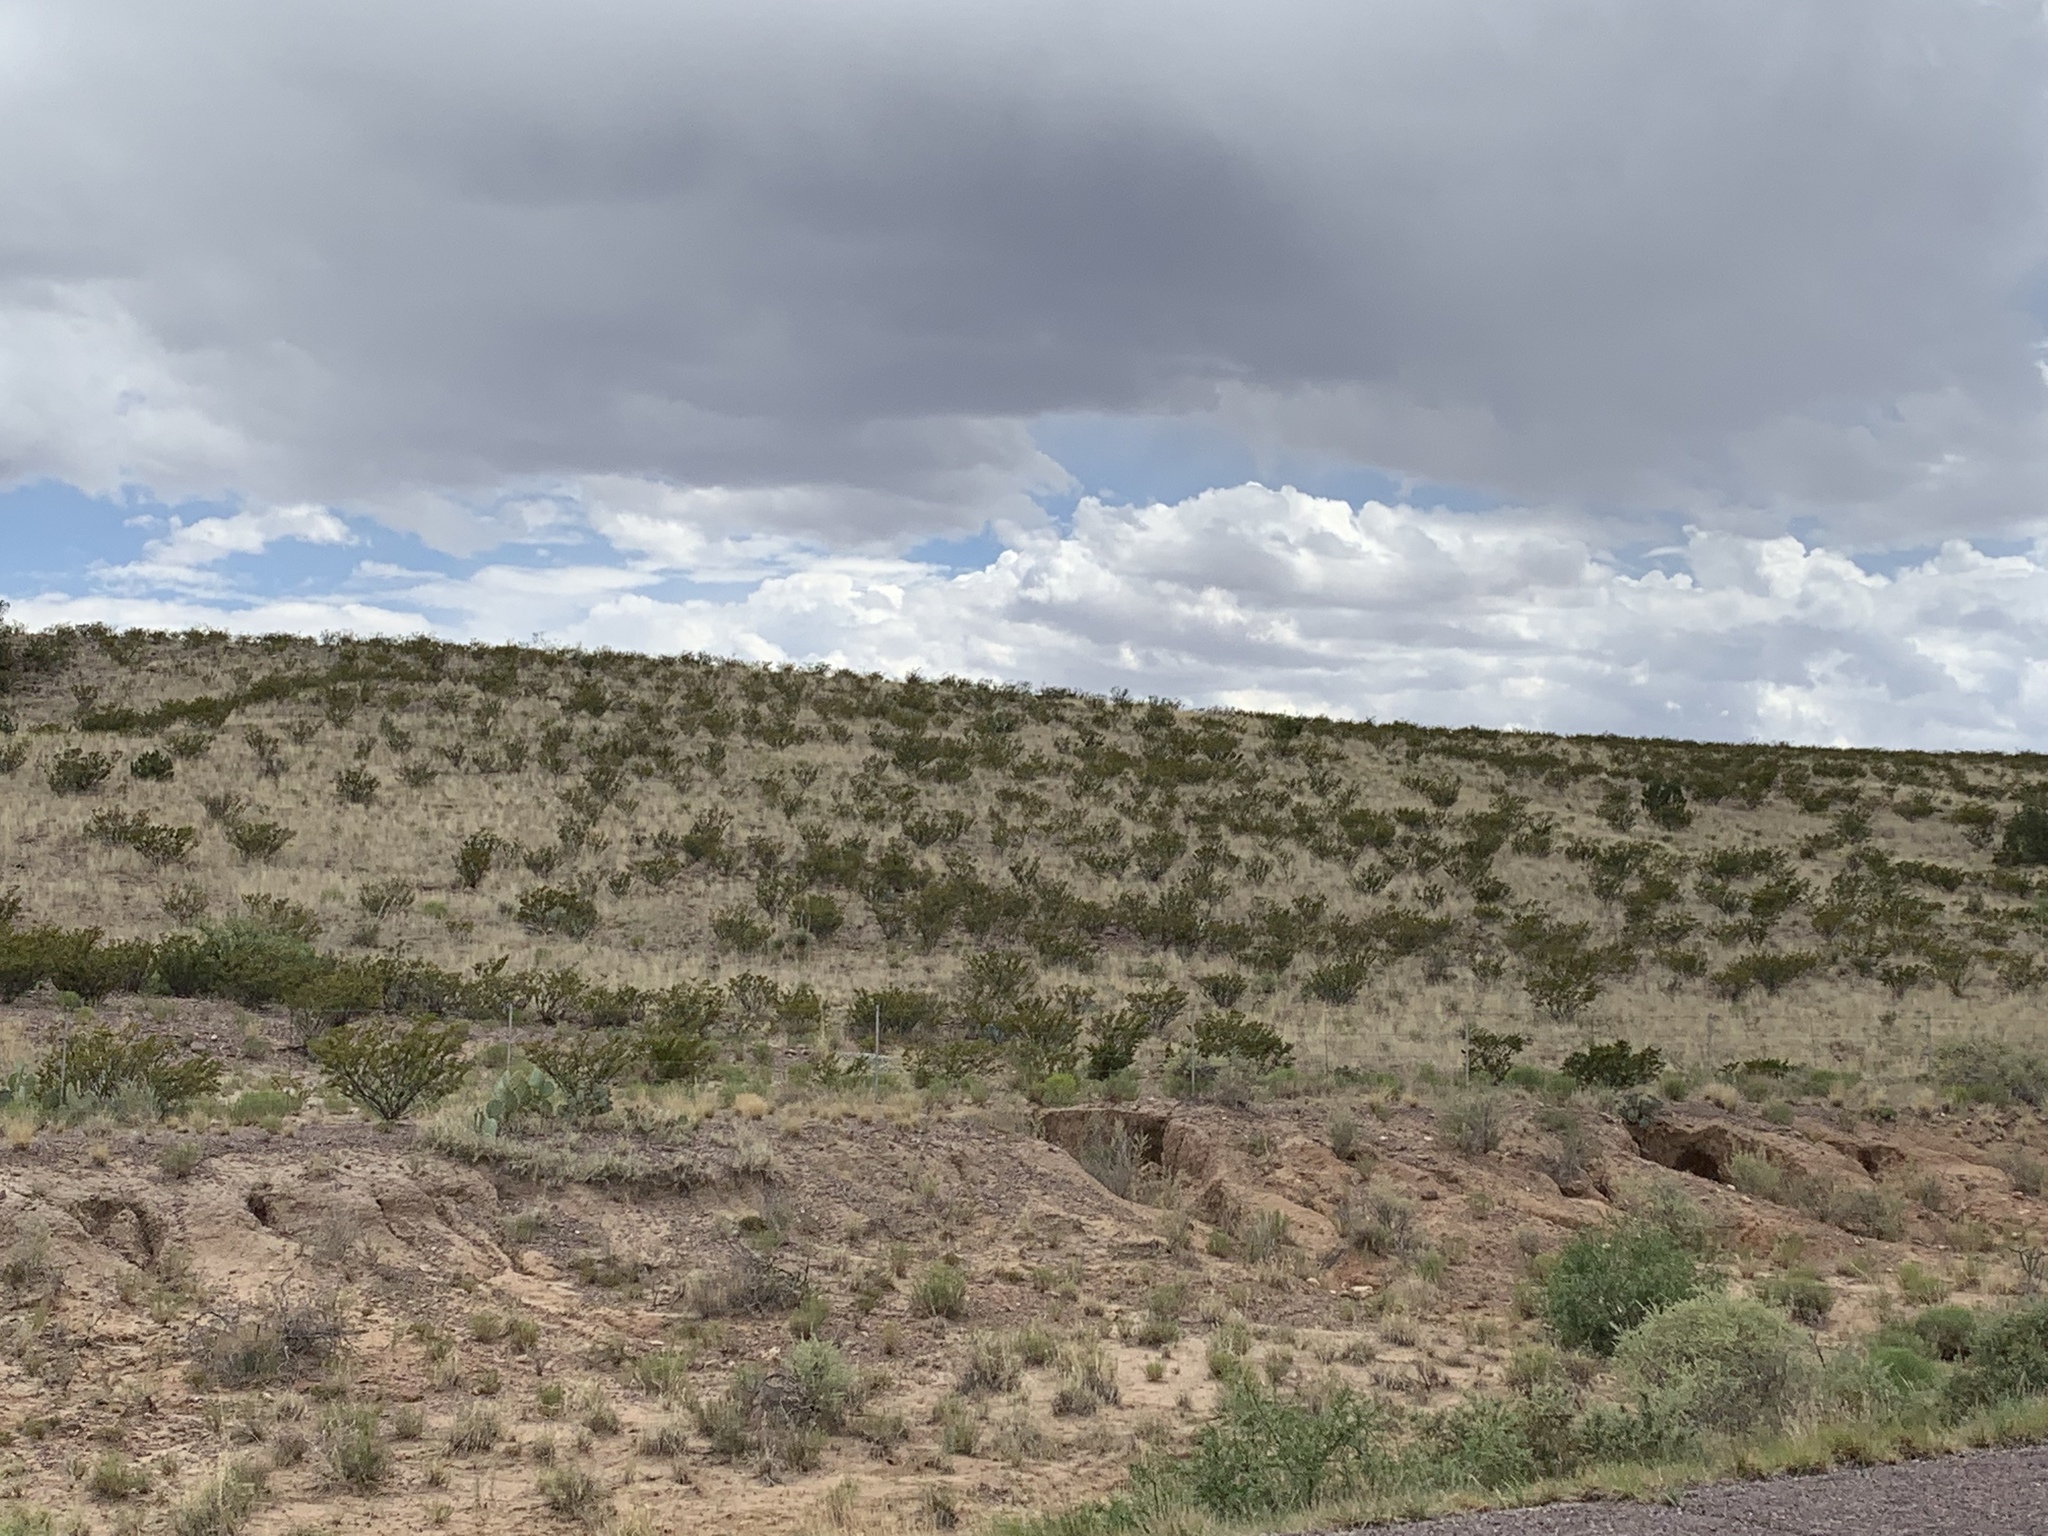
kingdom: Plantae
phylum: Tracheophyta
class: Magnoliopsida
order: Zygophyllales
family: Zygophyllaceae
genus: Larrea
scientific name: Larrea tridentata
